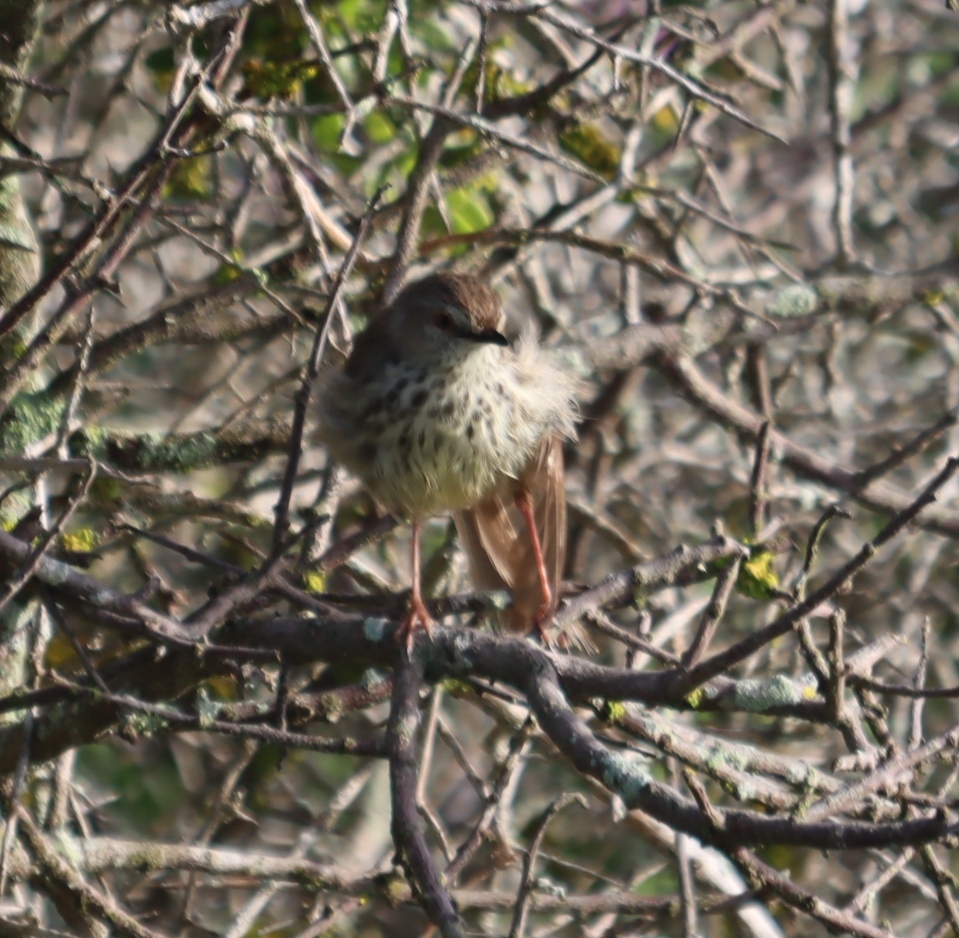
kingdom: Animalia
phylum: Chordata
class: Aves
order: Passeriformes
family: Cisticolidae
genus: Prinia
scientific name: Prinia maculosa
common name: Karoo prinia
